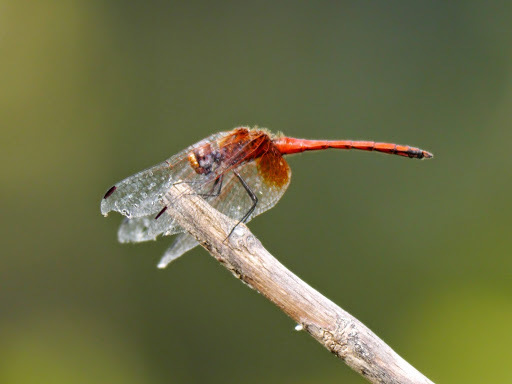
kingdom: Animalia
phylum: Arthropoda
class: Insecta
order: Odonata
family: Libellulidae
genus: Trithemis
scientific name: Trithemis pluvialis
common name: Russet dropwing
